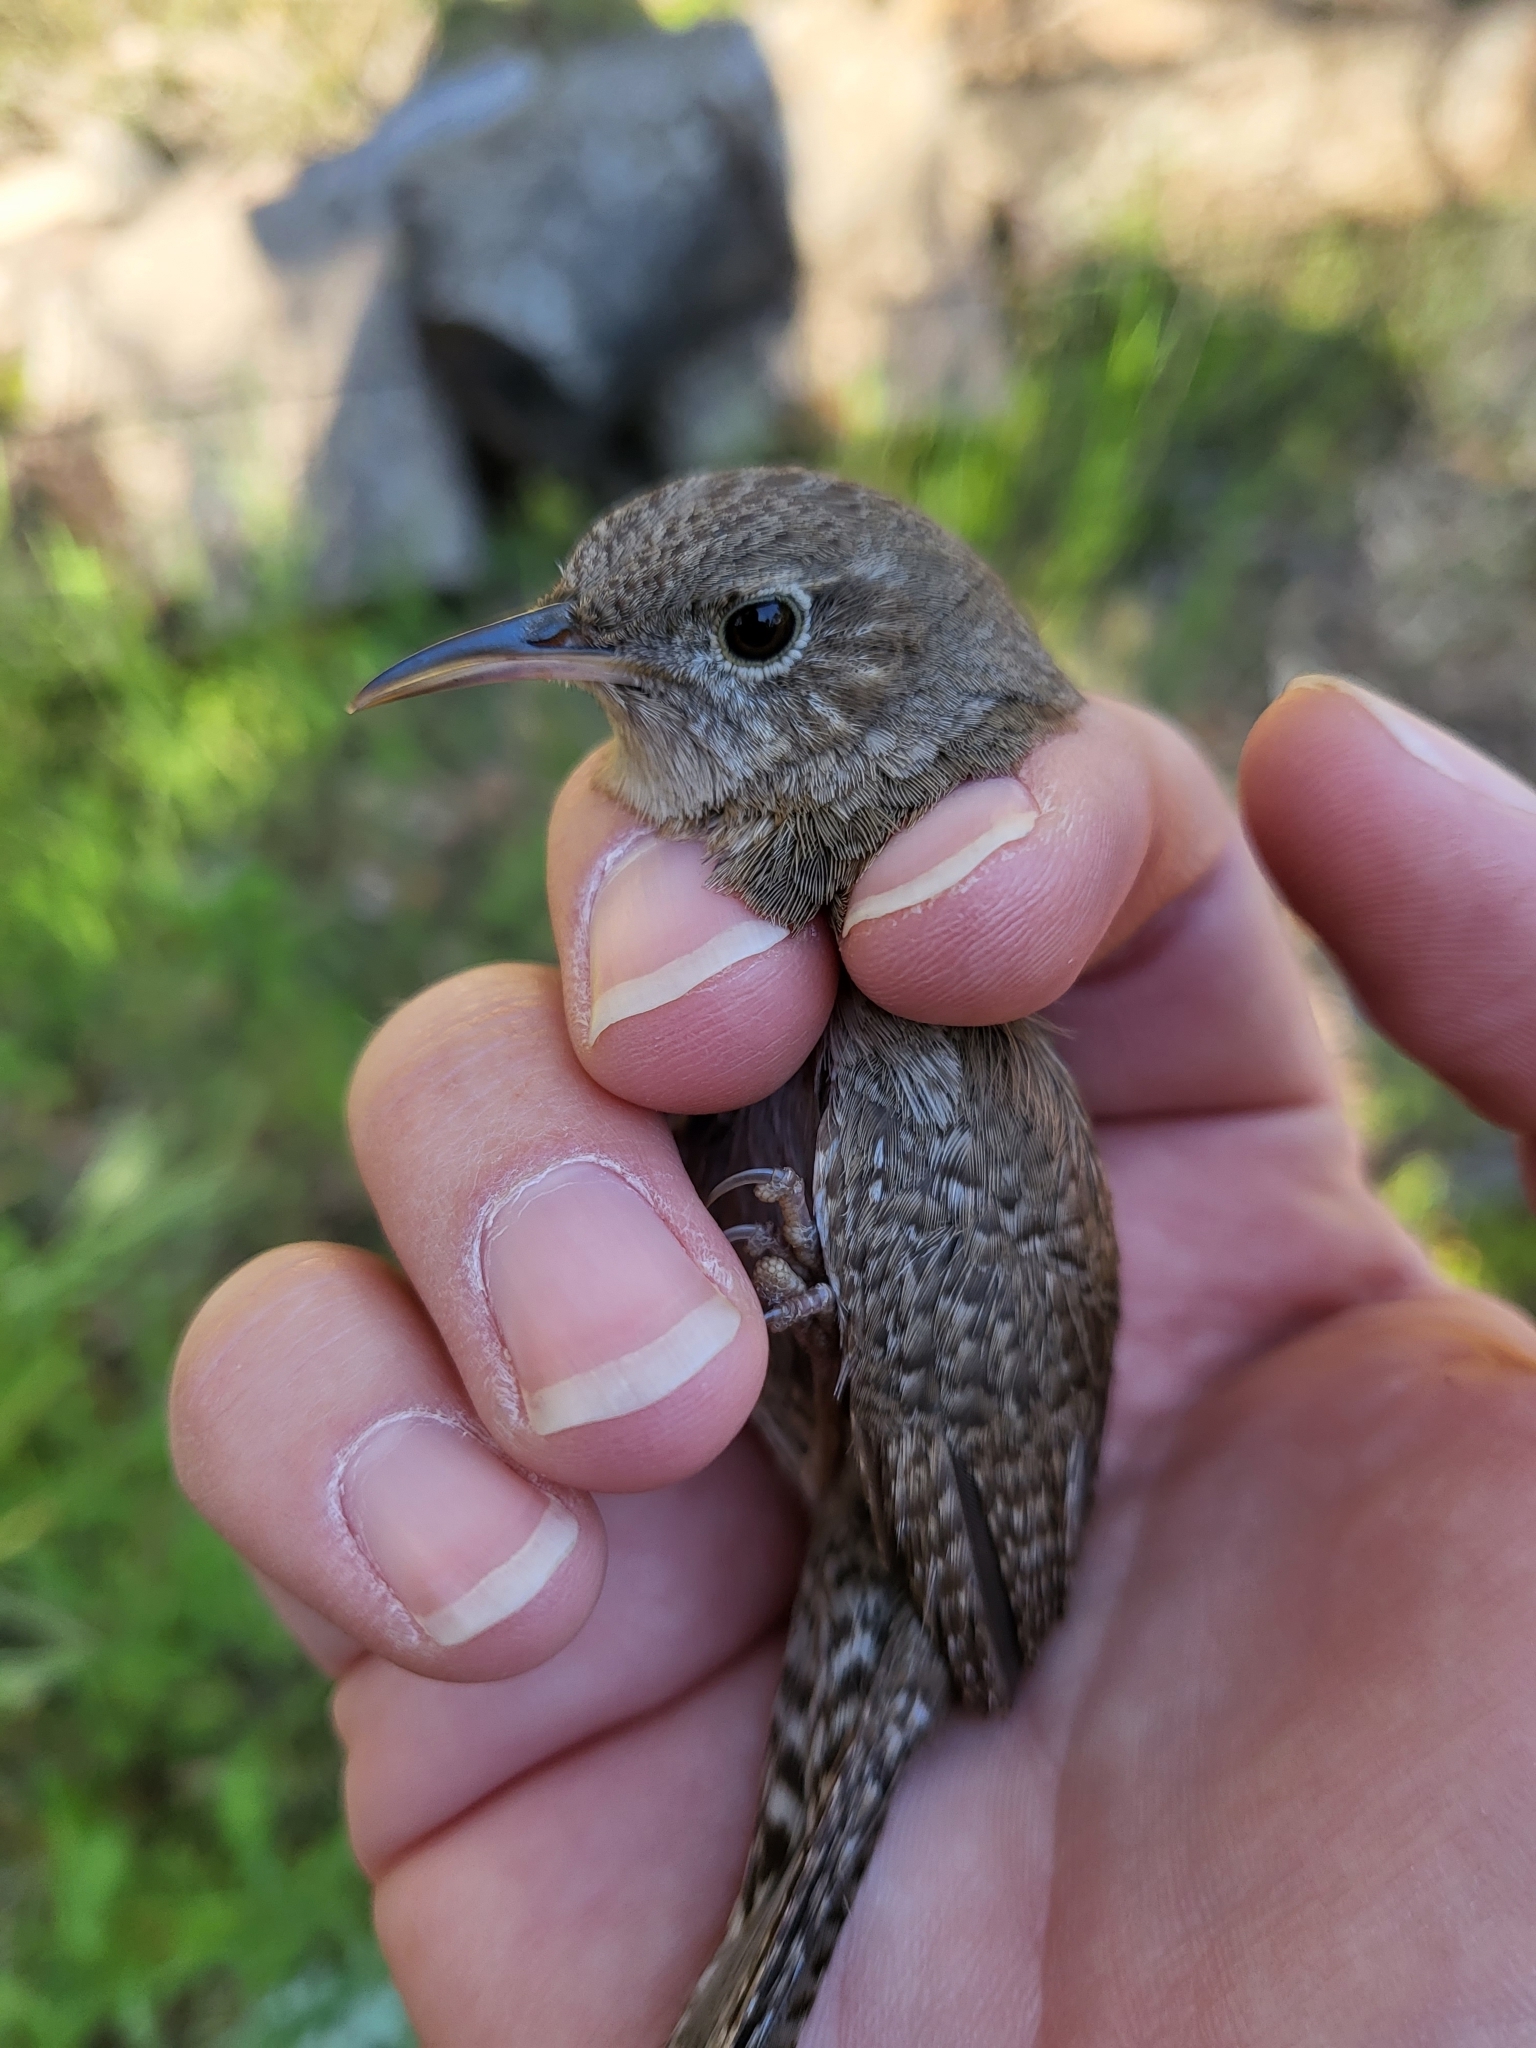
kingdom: Animalia
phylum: Chordata
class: Aves
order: Passeriformes
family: Troglodytidae
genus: Troglodytes
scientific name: Troglodytes aedon
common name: House wren
